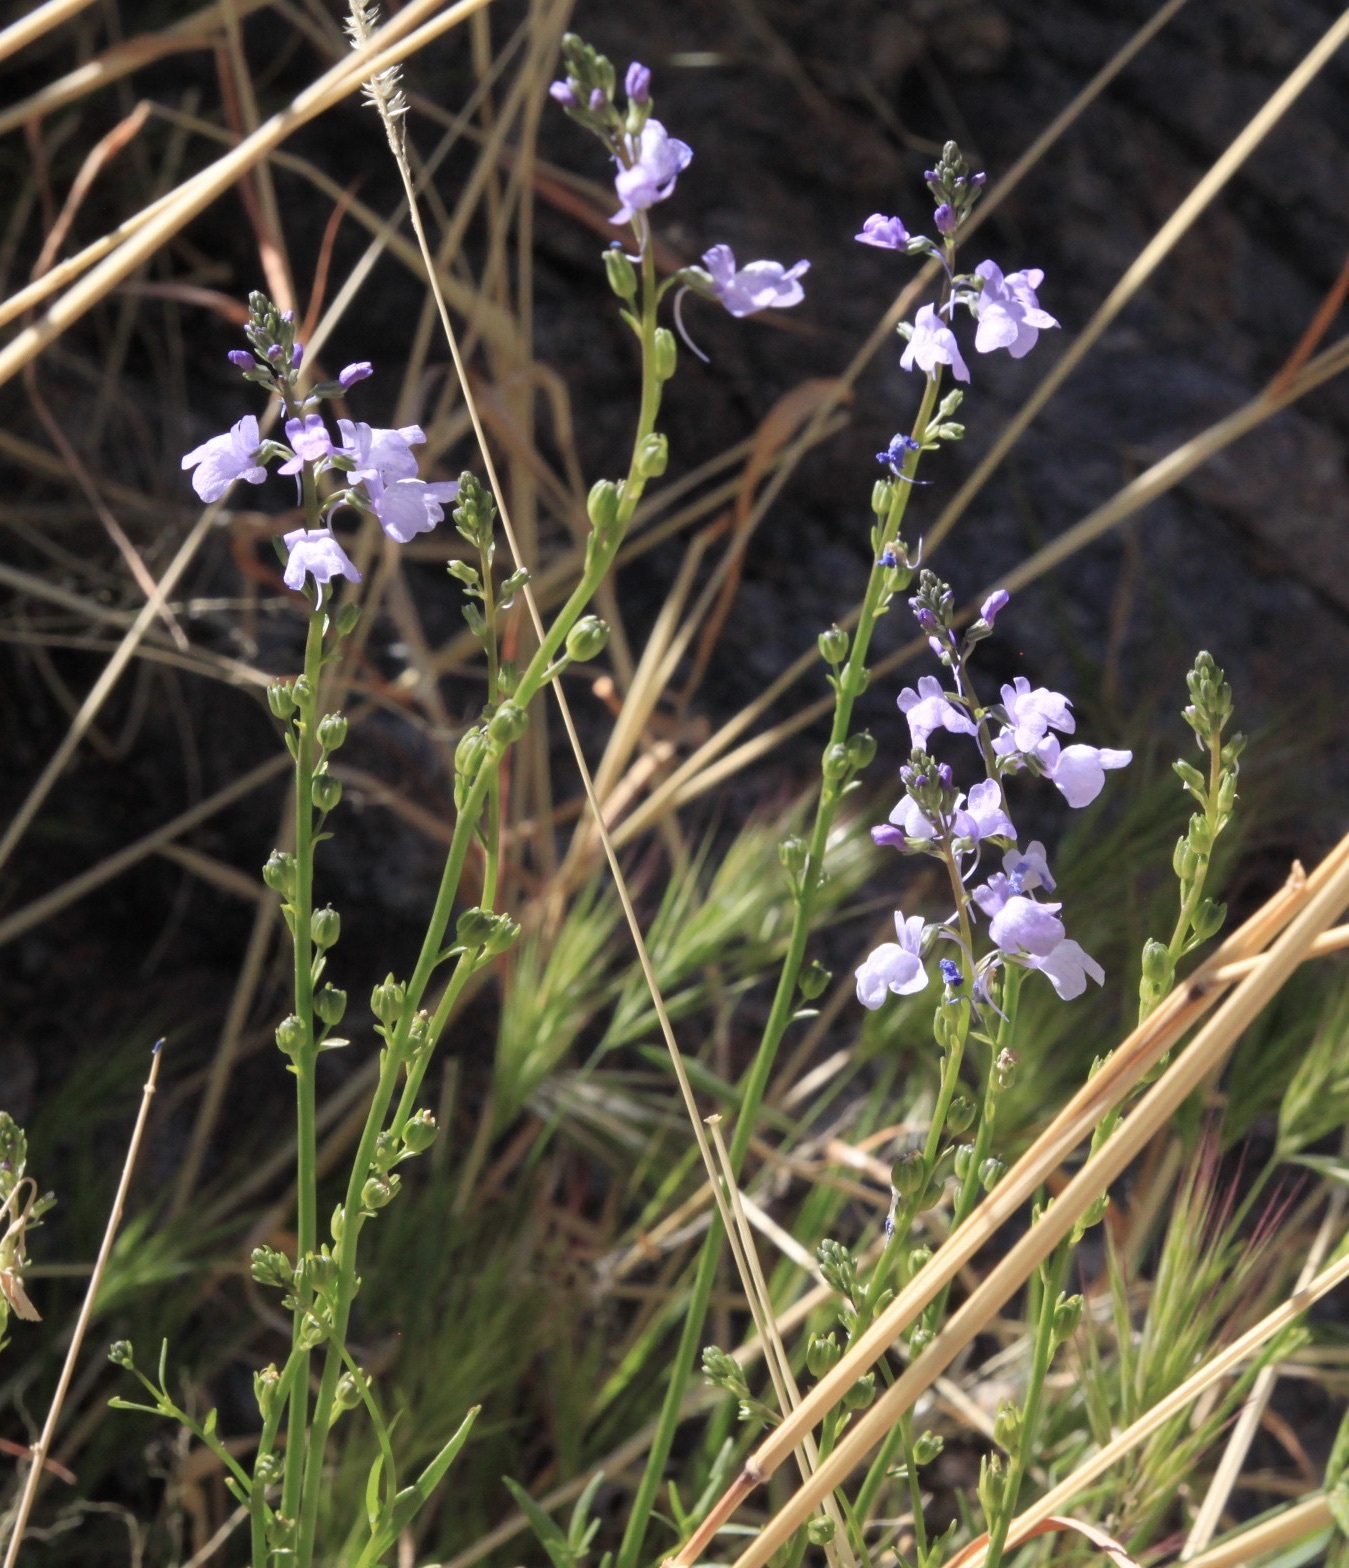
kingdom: Plantae
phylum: Tracheophyta
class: Magnoliopsida
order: Lamiales
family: Plantaginaceae
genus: Nuttallanthus
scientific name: Nuttallanthus texanus
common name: Texas toadflax
